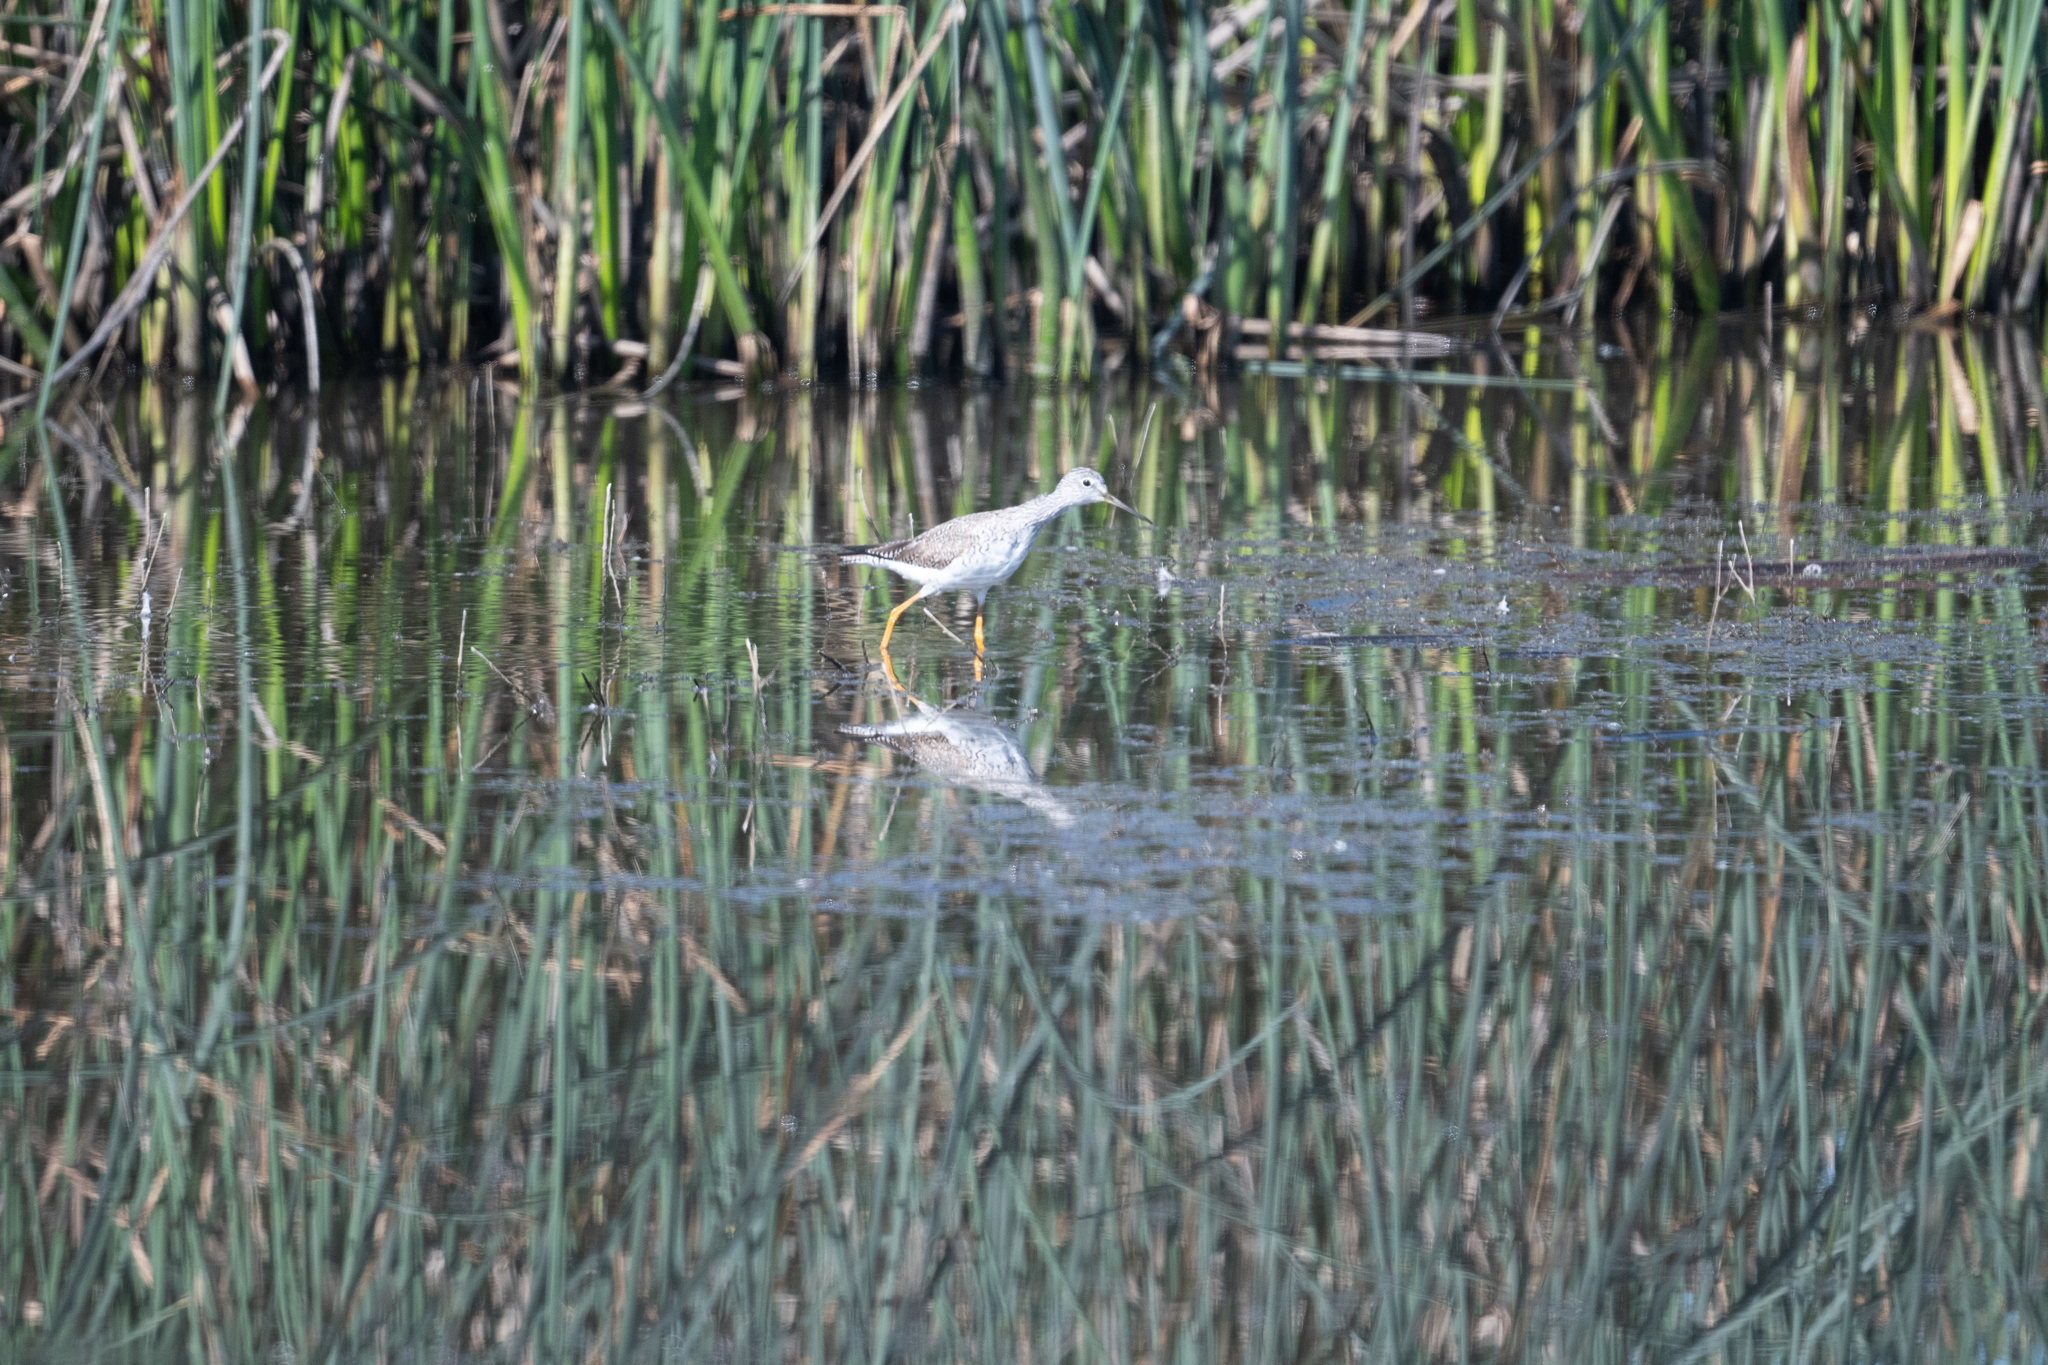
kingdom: Animalia
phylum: Chordata
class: Aves
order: Charadriiformes
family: Scolopacidae
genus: Tringa
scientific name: Tringa melanoleuca
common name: Greater yellowlegs
